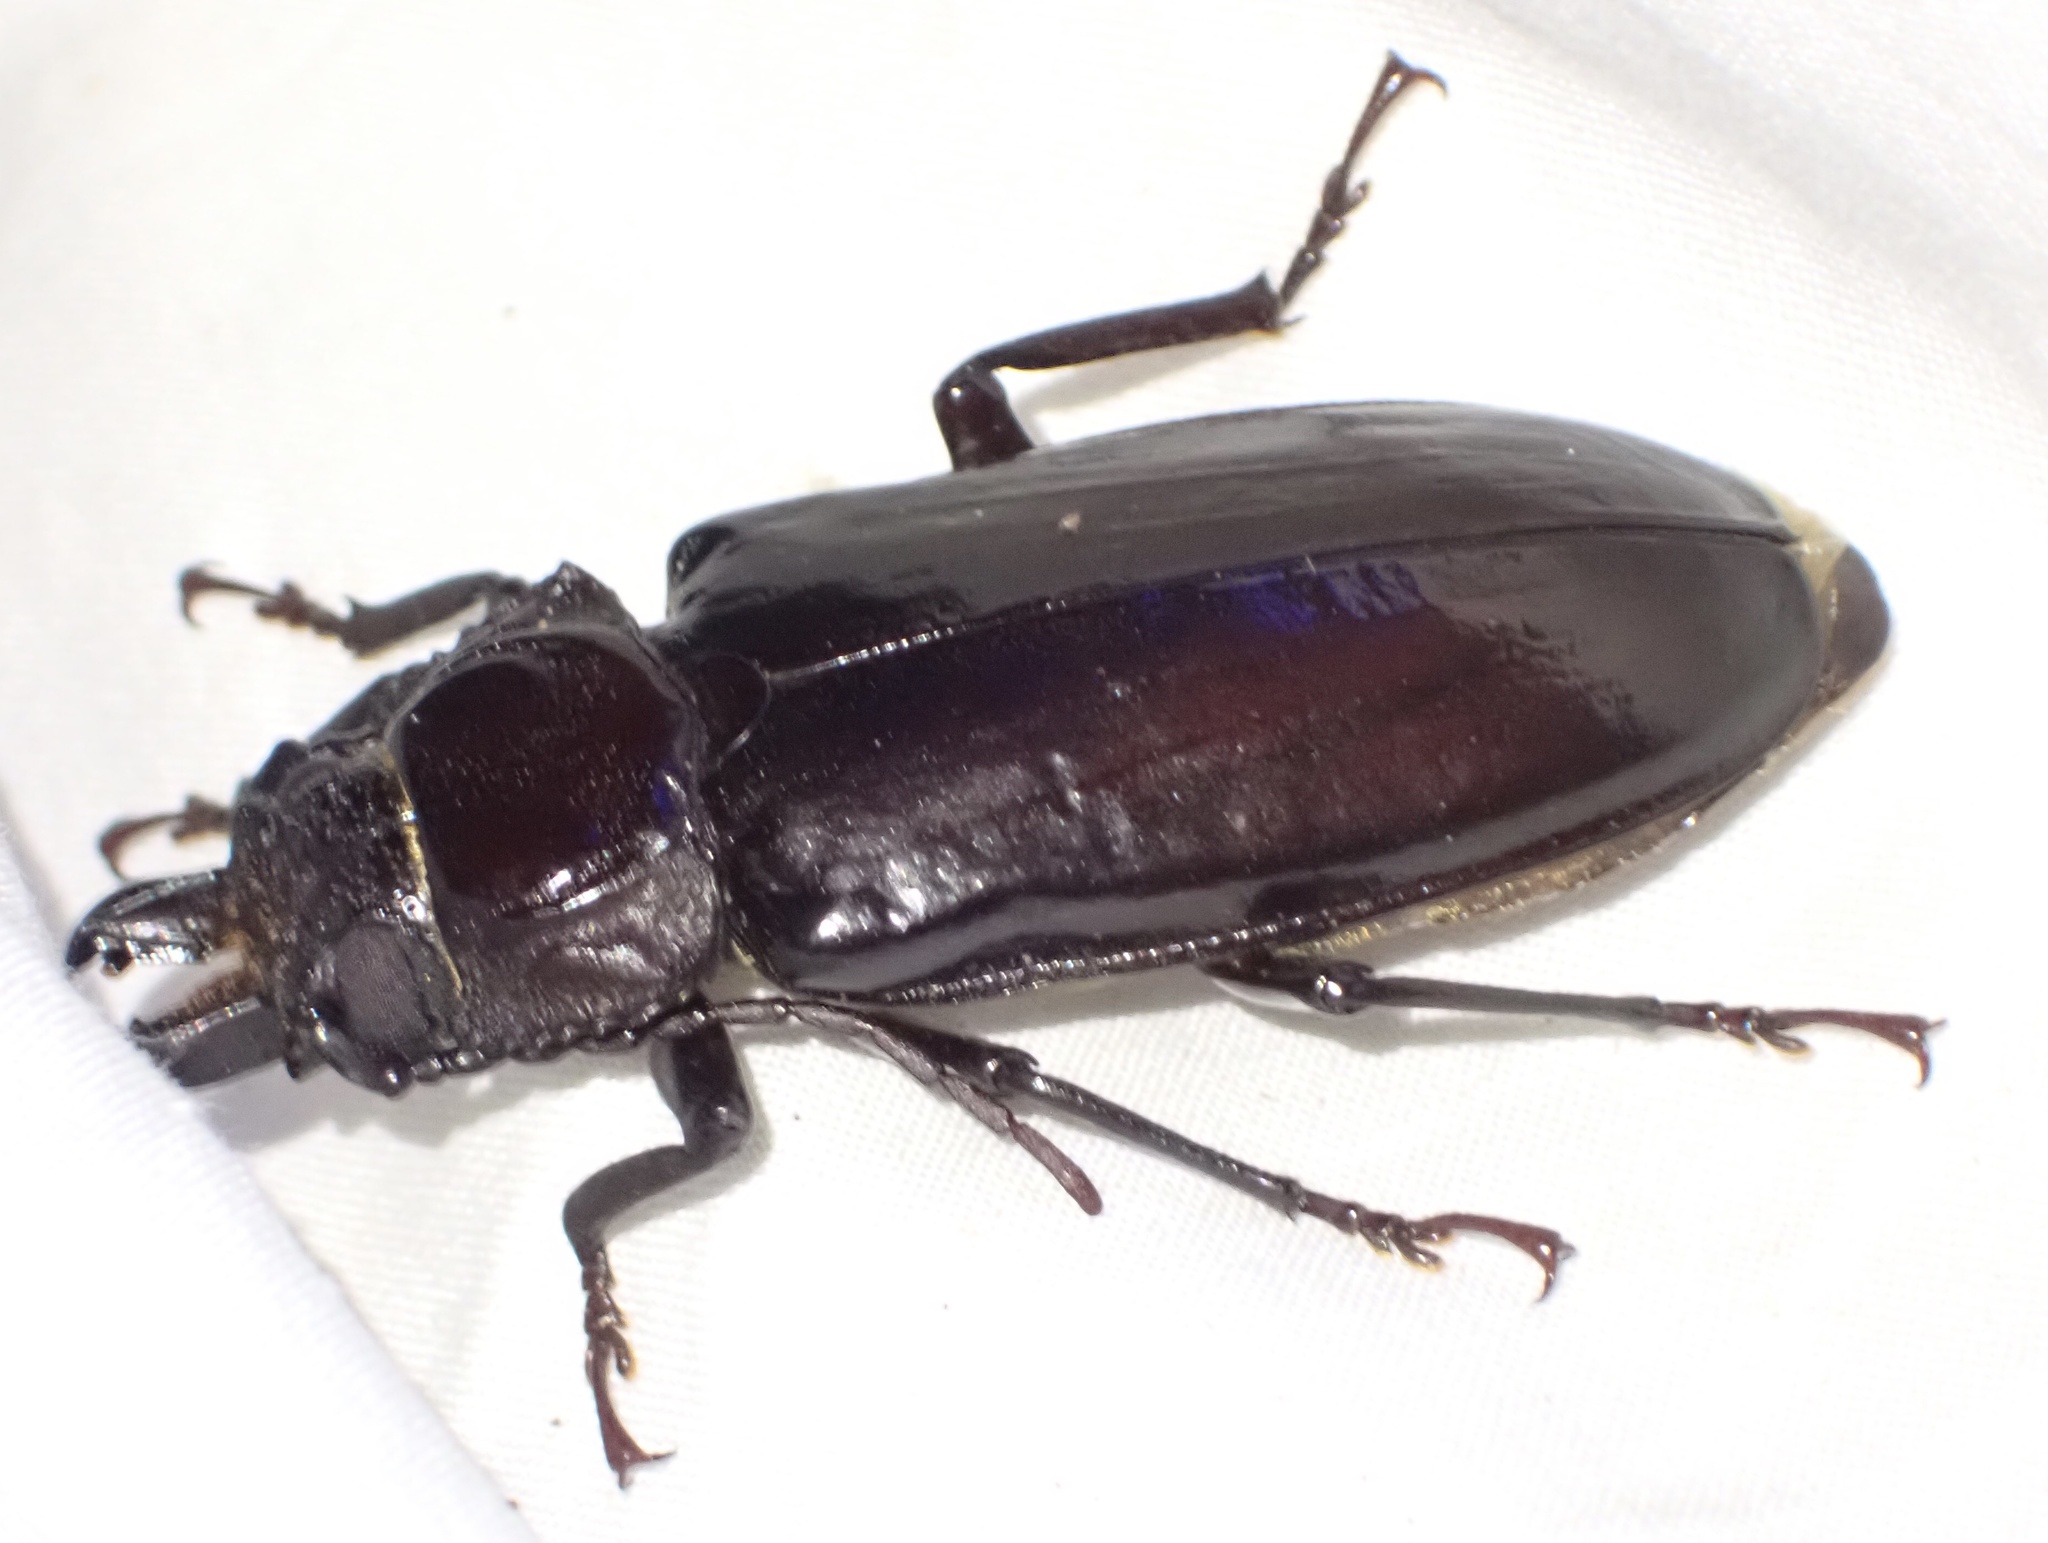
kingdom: Animalia
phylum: Arthropoda
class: Insecta
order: Coleoptera
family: Cerambycidae
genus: Mallodon
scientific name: Mallodon downesii
